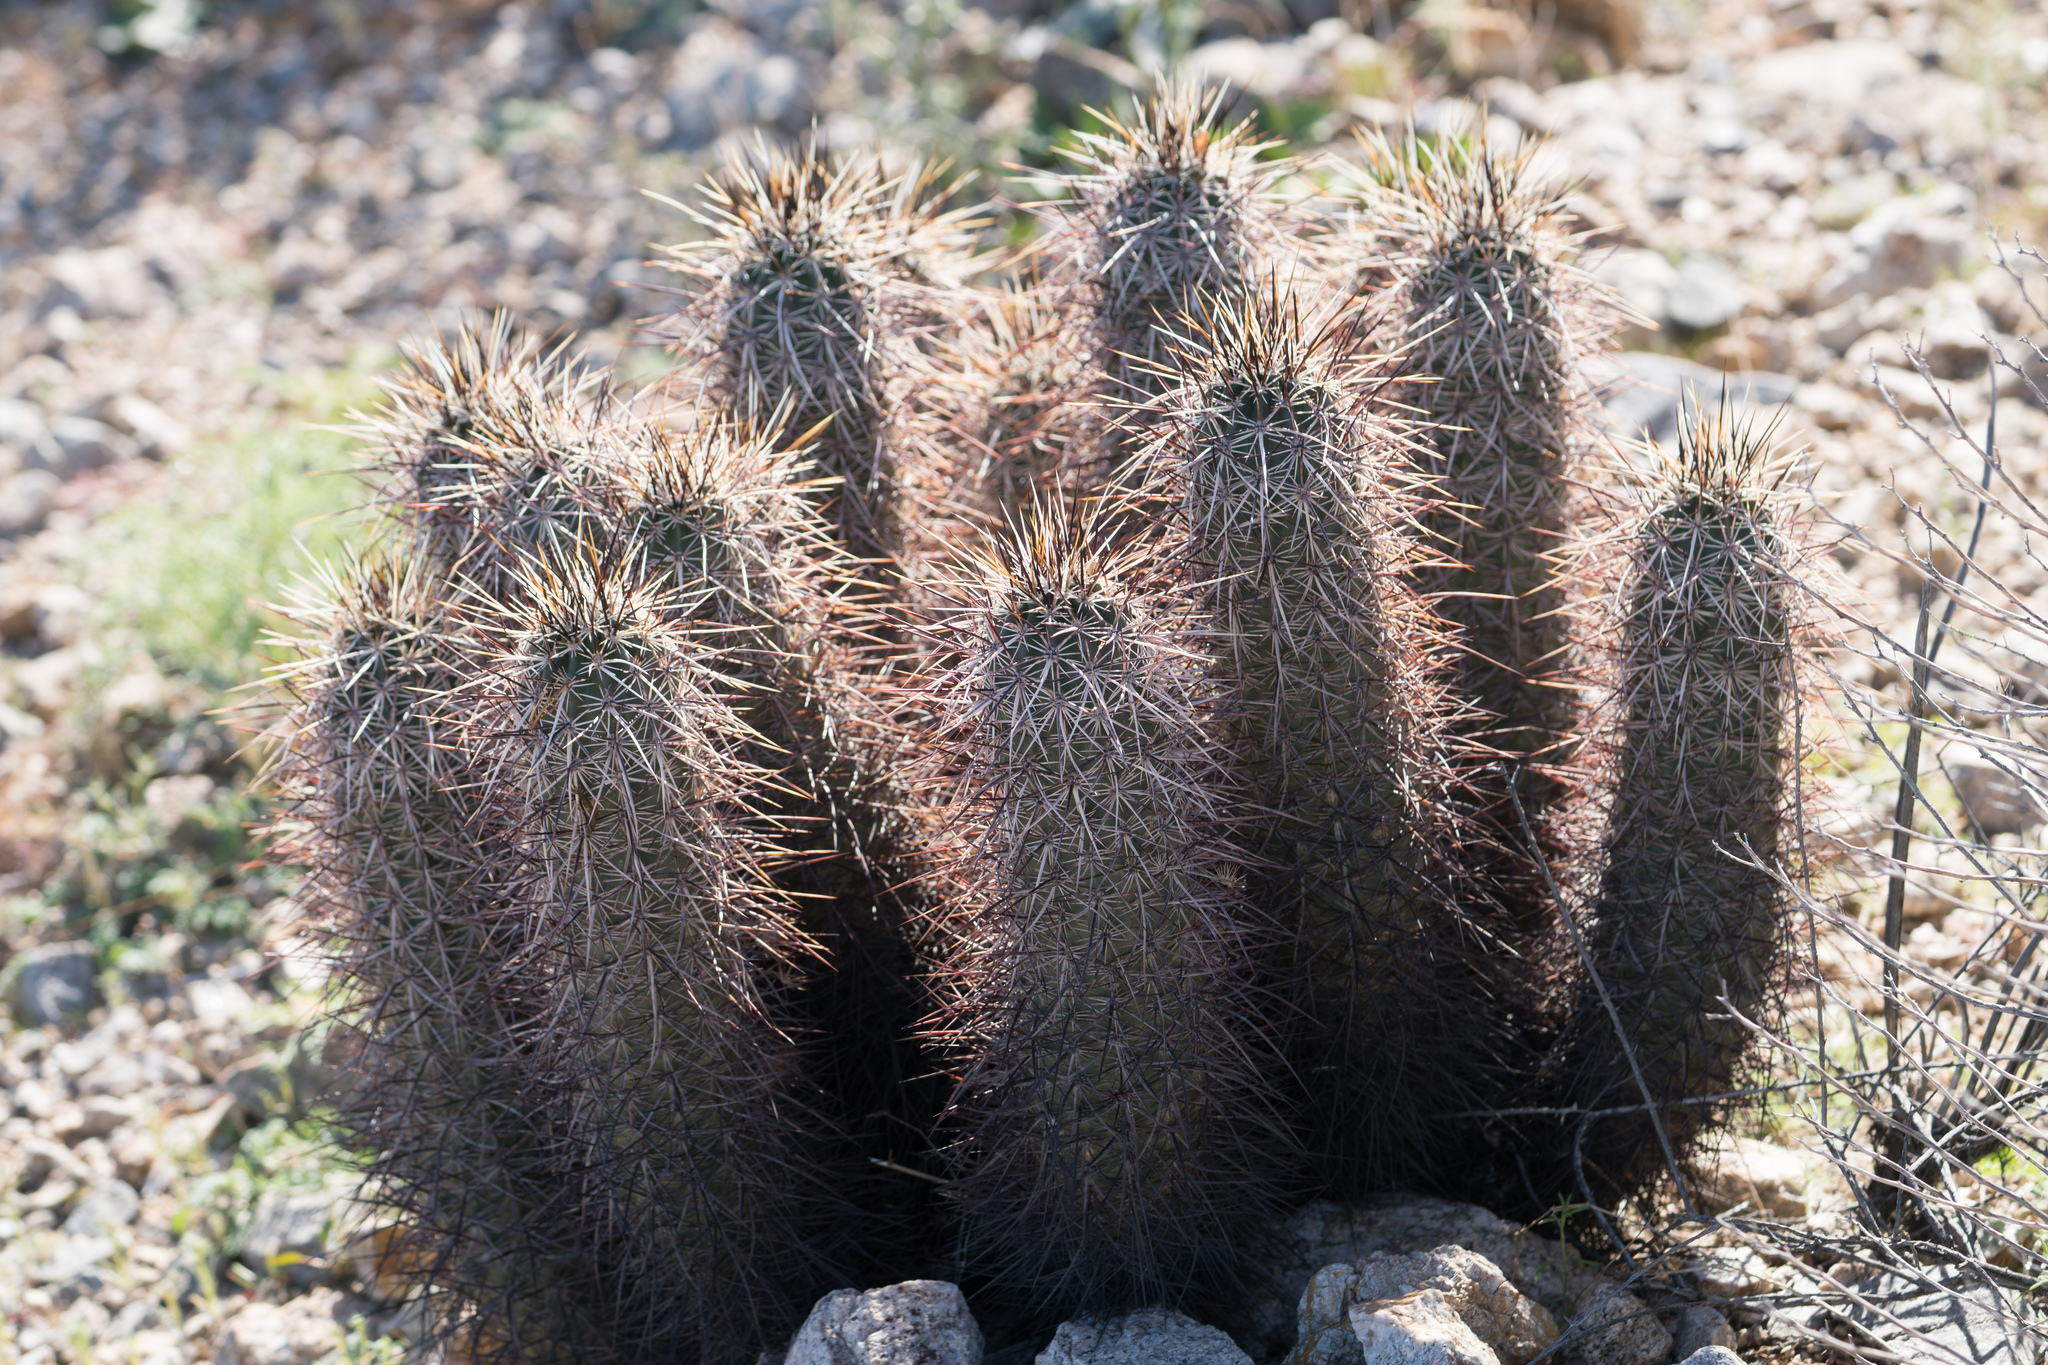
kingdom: Plantae
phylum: Tracheophyta
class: Magnoliopsida
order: Caryophyllales
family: Cactaceae
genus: Echinocereus
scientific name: Echinocereus engelmannii
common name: Engelmann's hedgehog cactus
